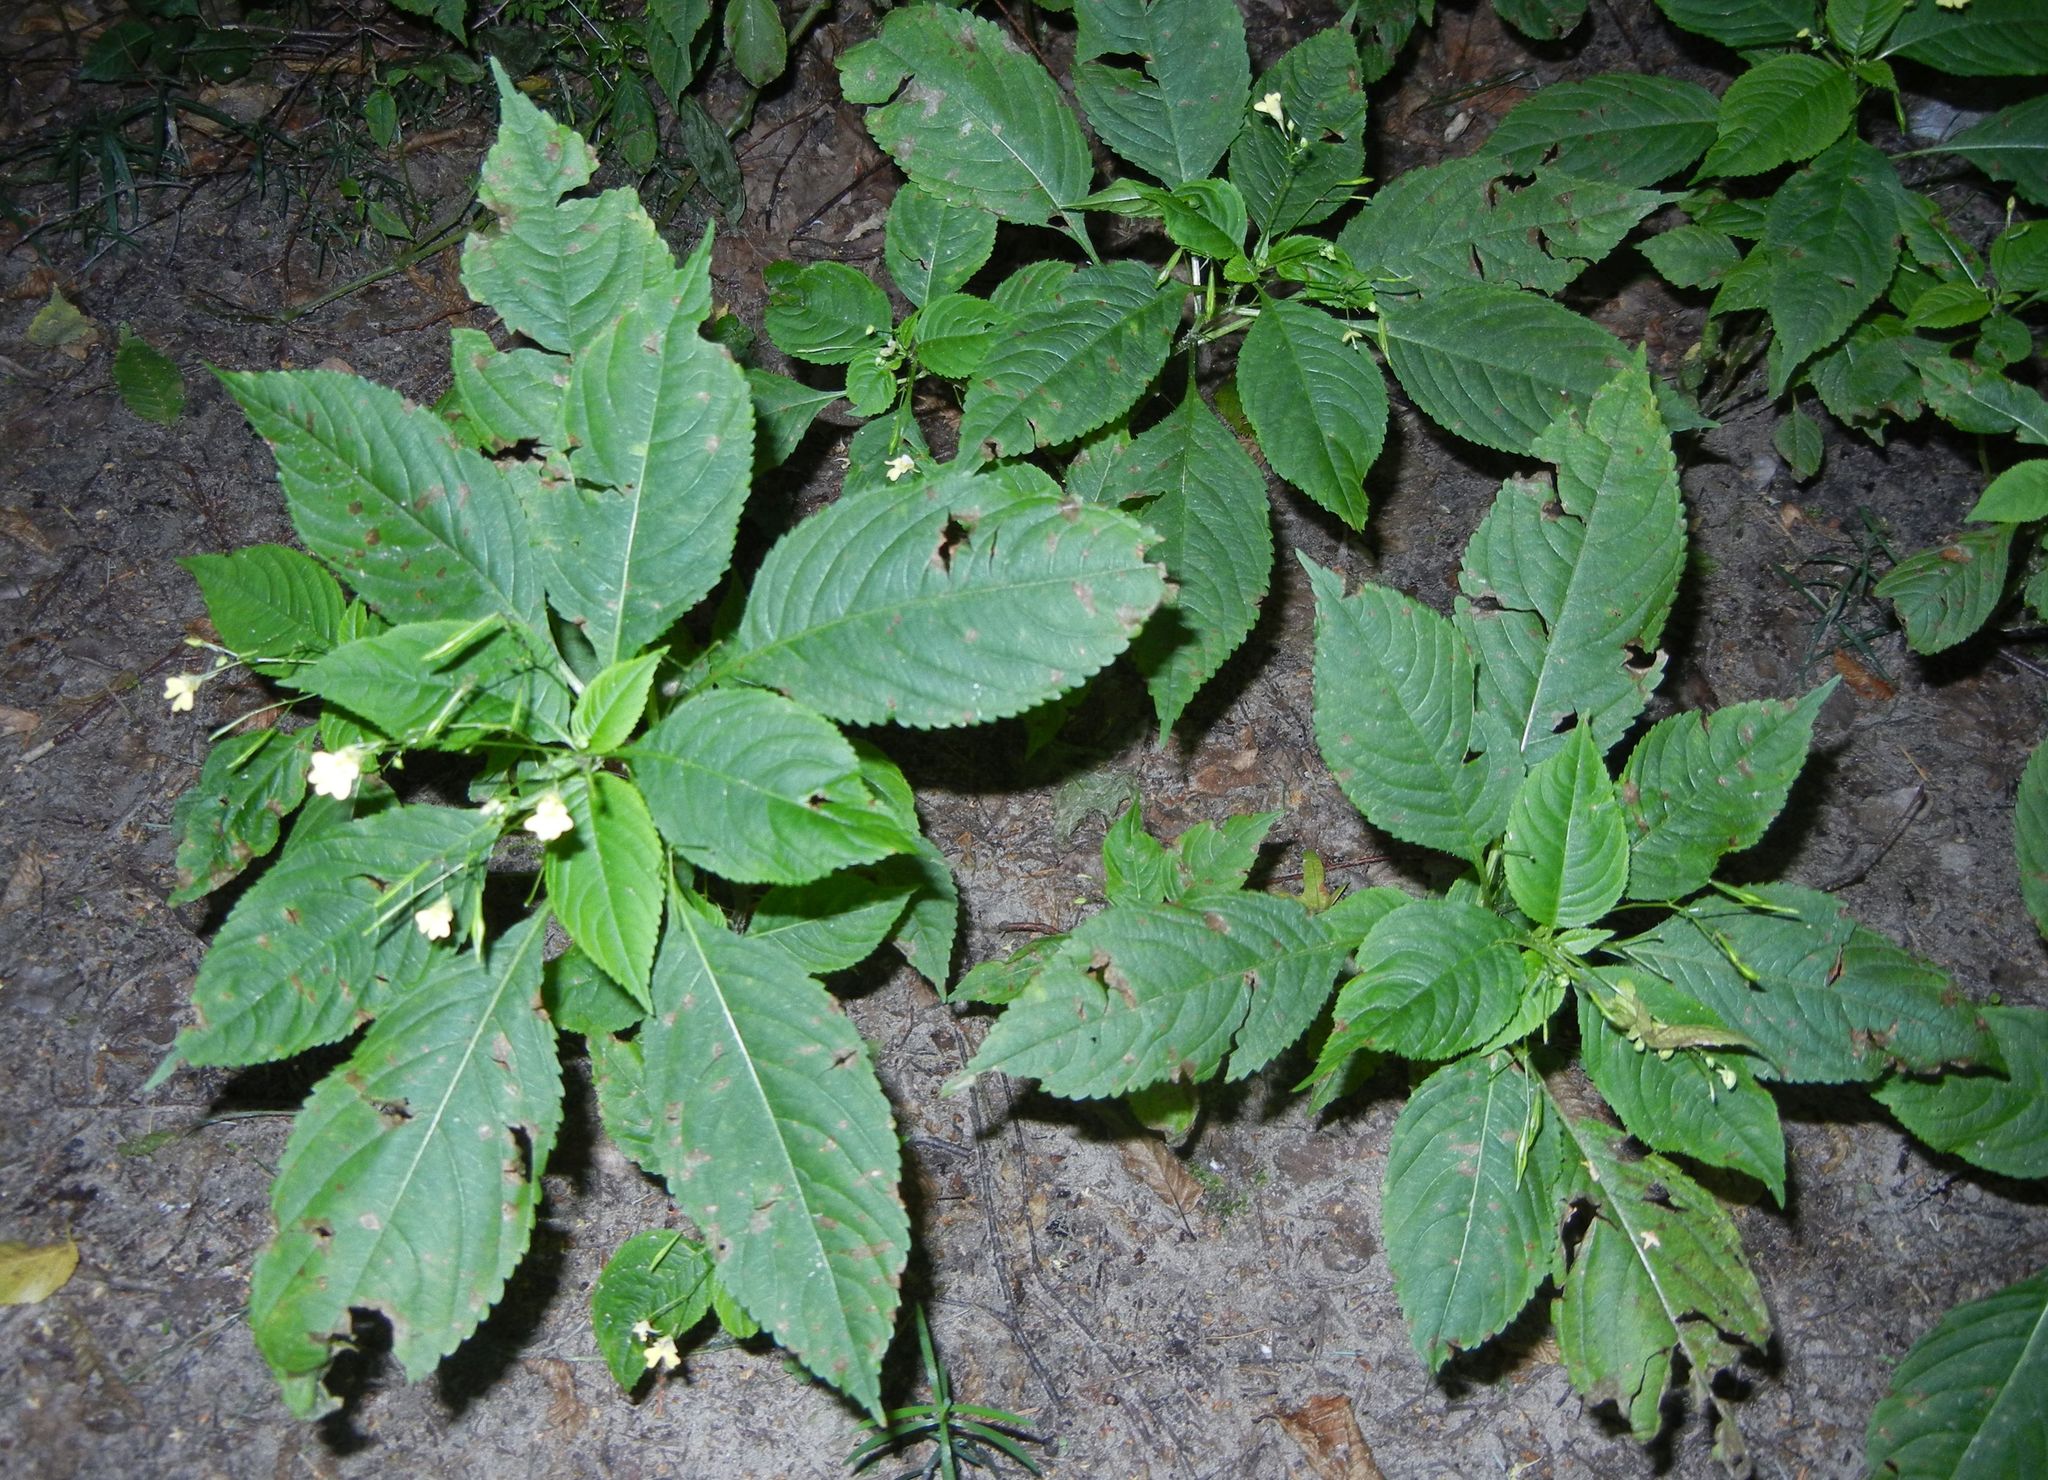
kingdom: Plantae
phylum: Tracheophyta
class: Magnoliopsida
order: Ericales
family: Balsaminaceae
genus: Impatiens
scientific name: Impatiens parviflora
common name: Small balsam
